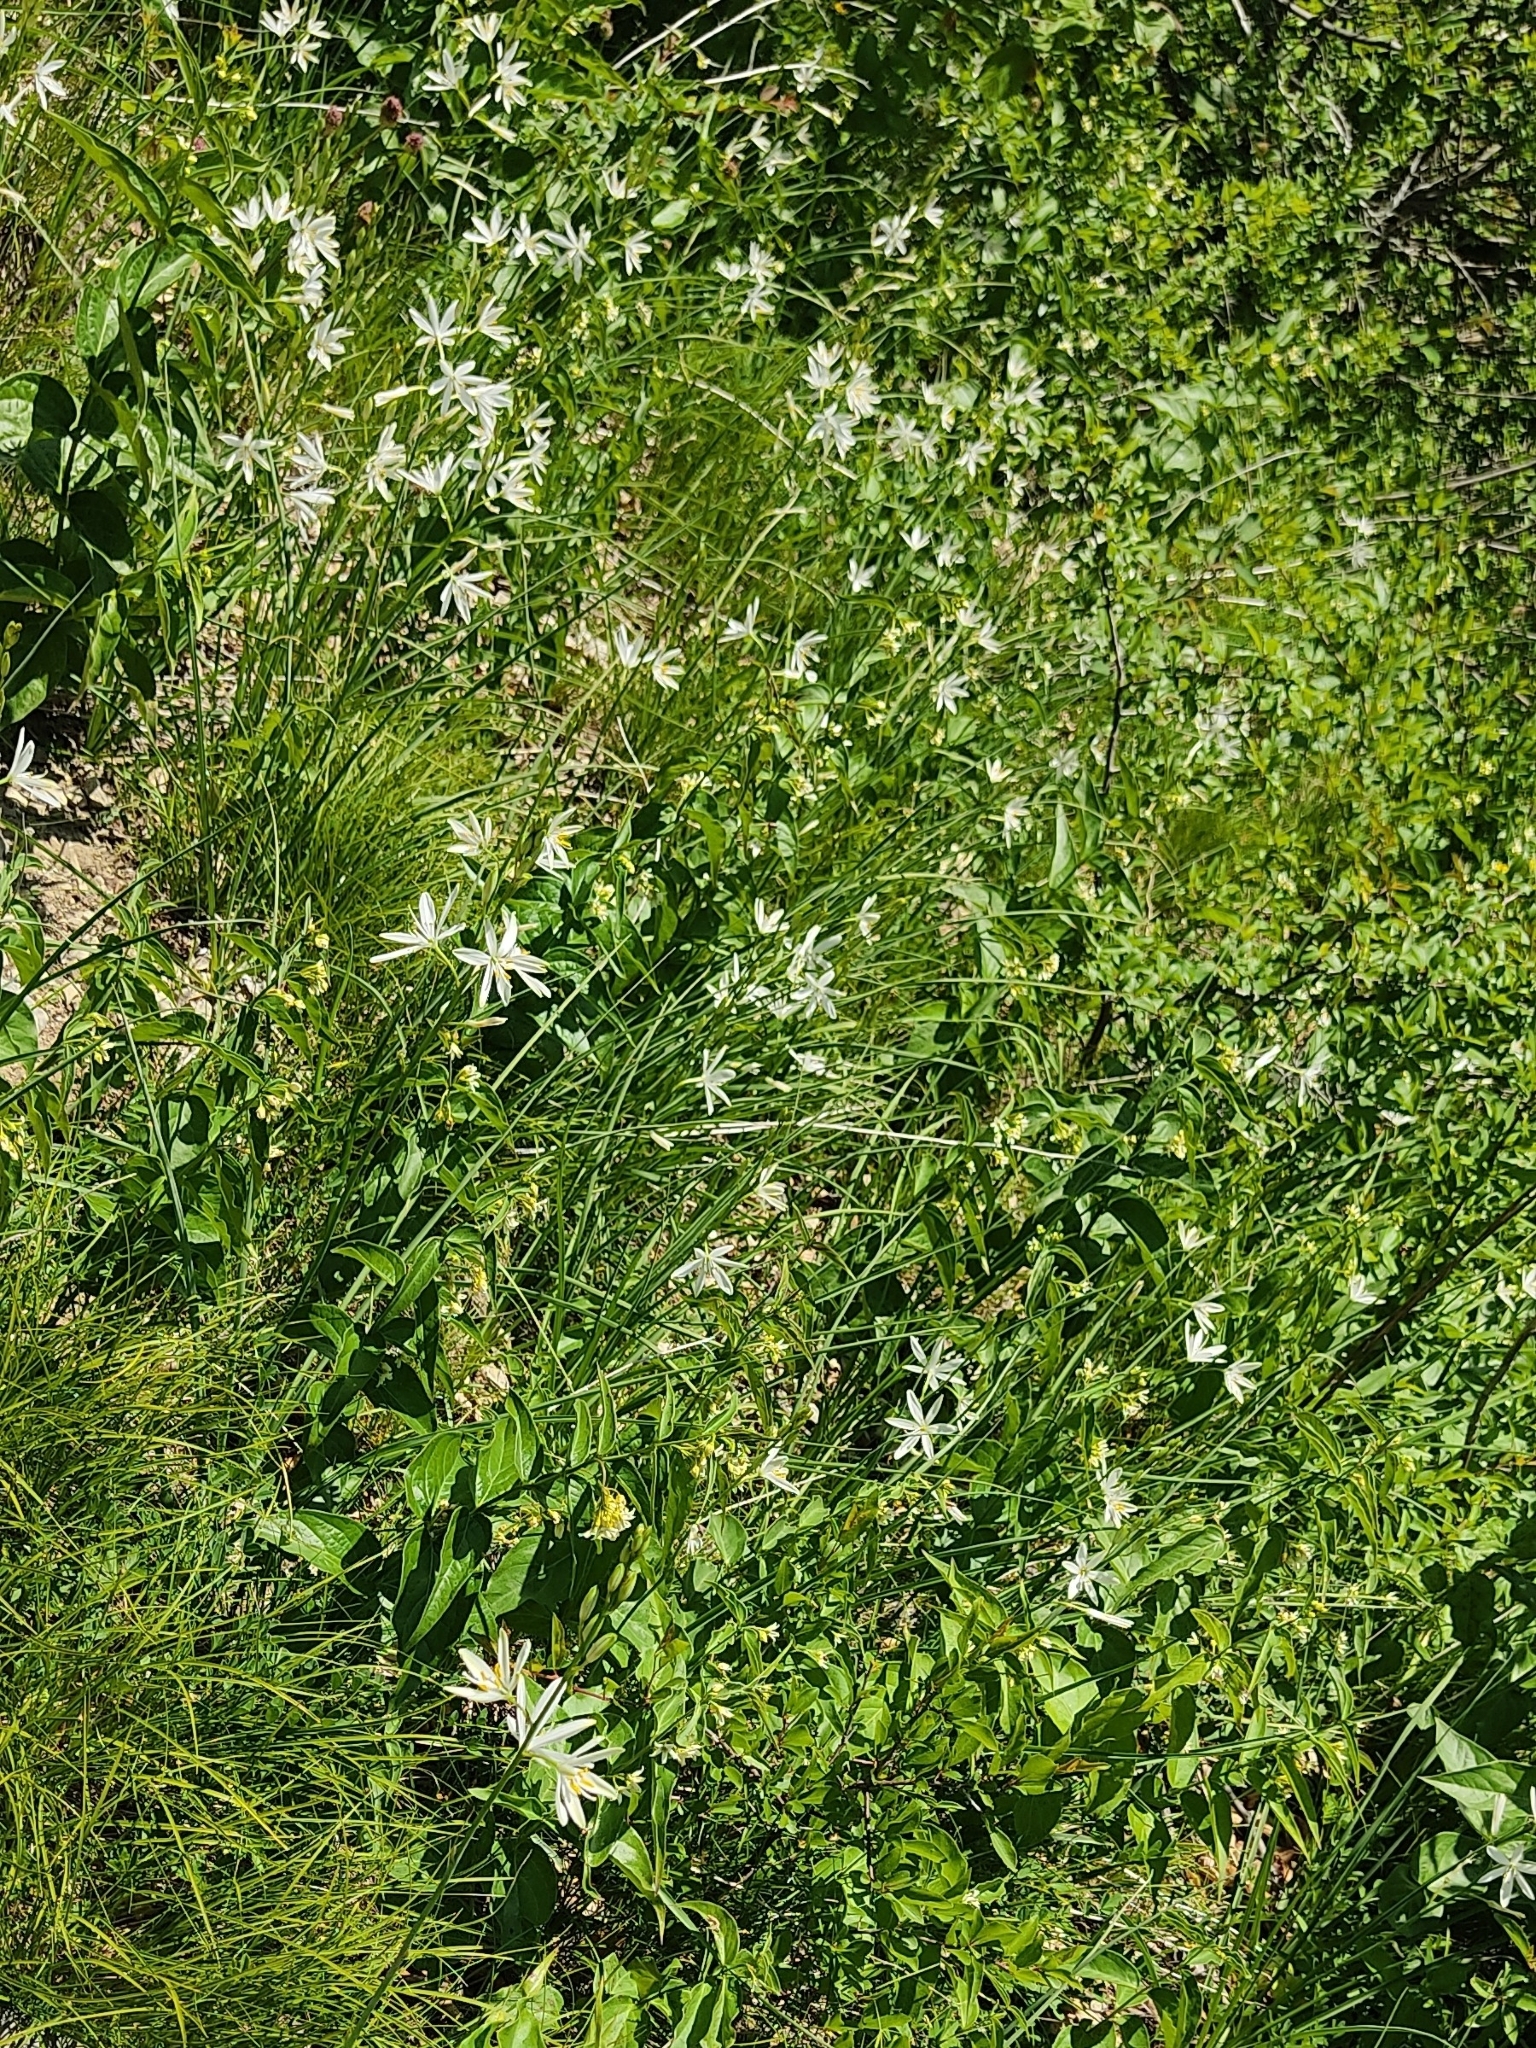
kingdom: Plantae
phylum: Tracheophyta
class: Liliopsida
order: Asparagales
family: Asparagaceae
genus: Anthericum
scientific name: Anthericum liliago
